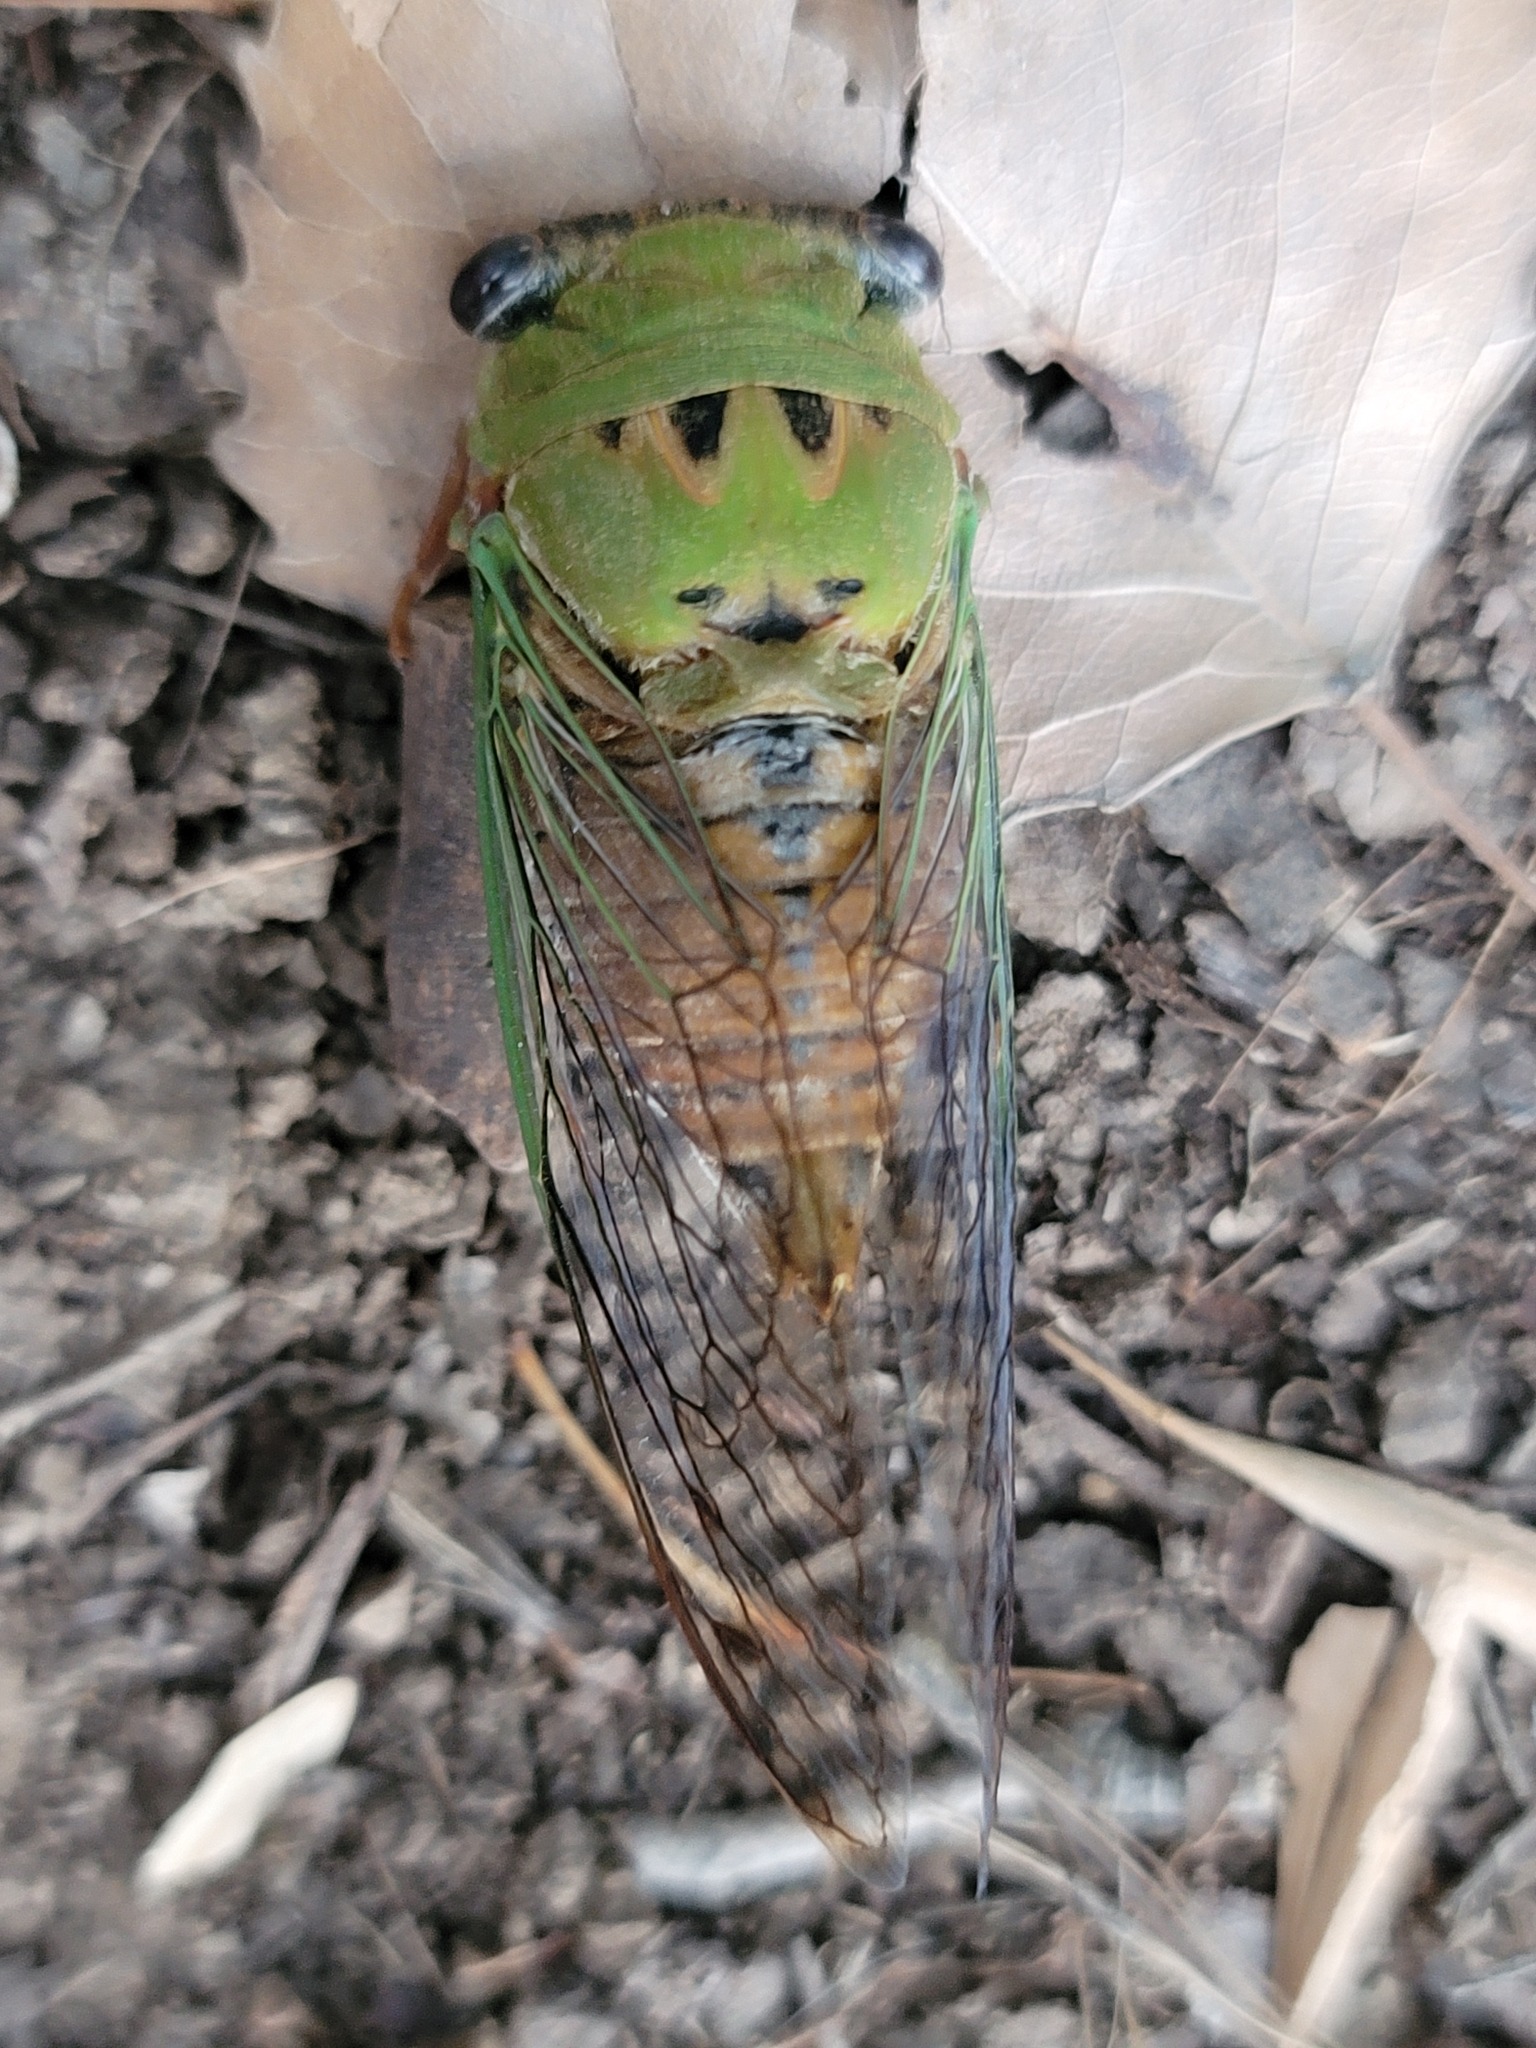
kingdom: Animalia
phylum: Arthropoda
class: Insecta
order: Hemiptera
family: Cicadidae
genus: Neotibicen
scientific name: Neotibicen superbus
